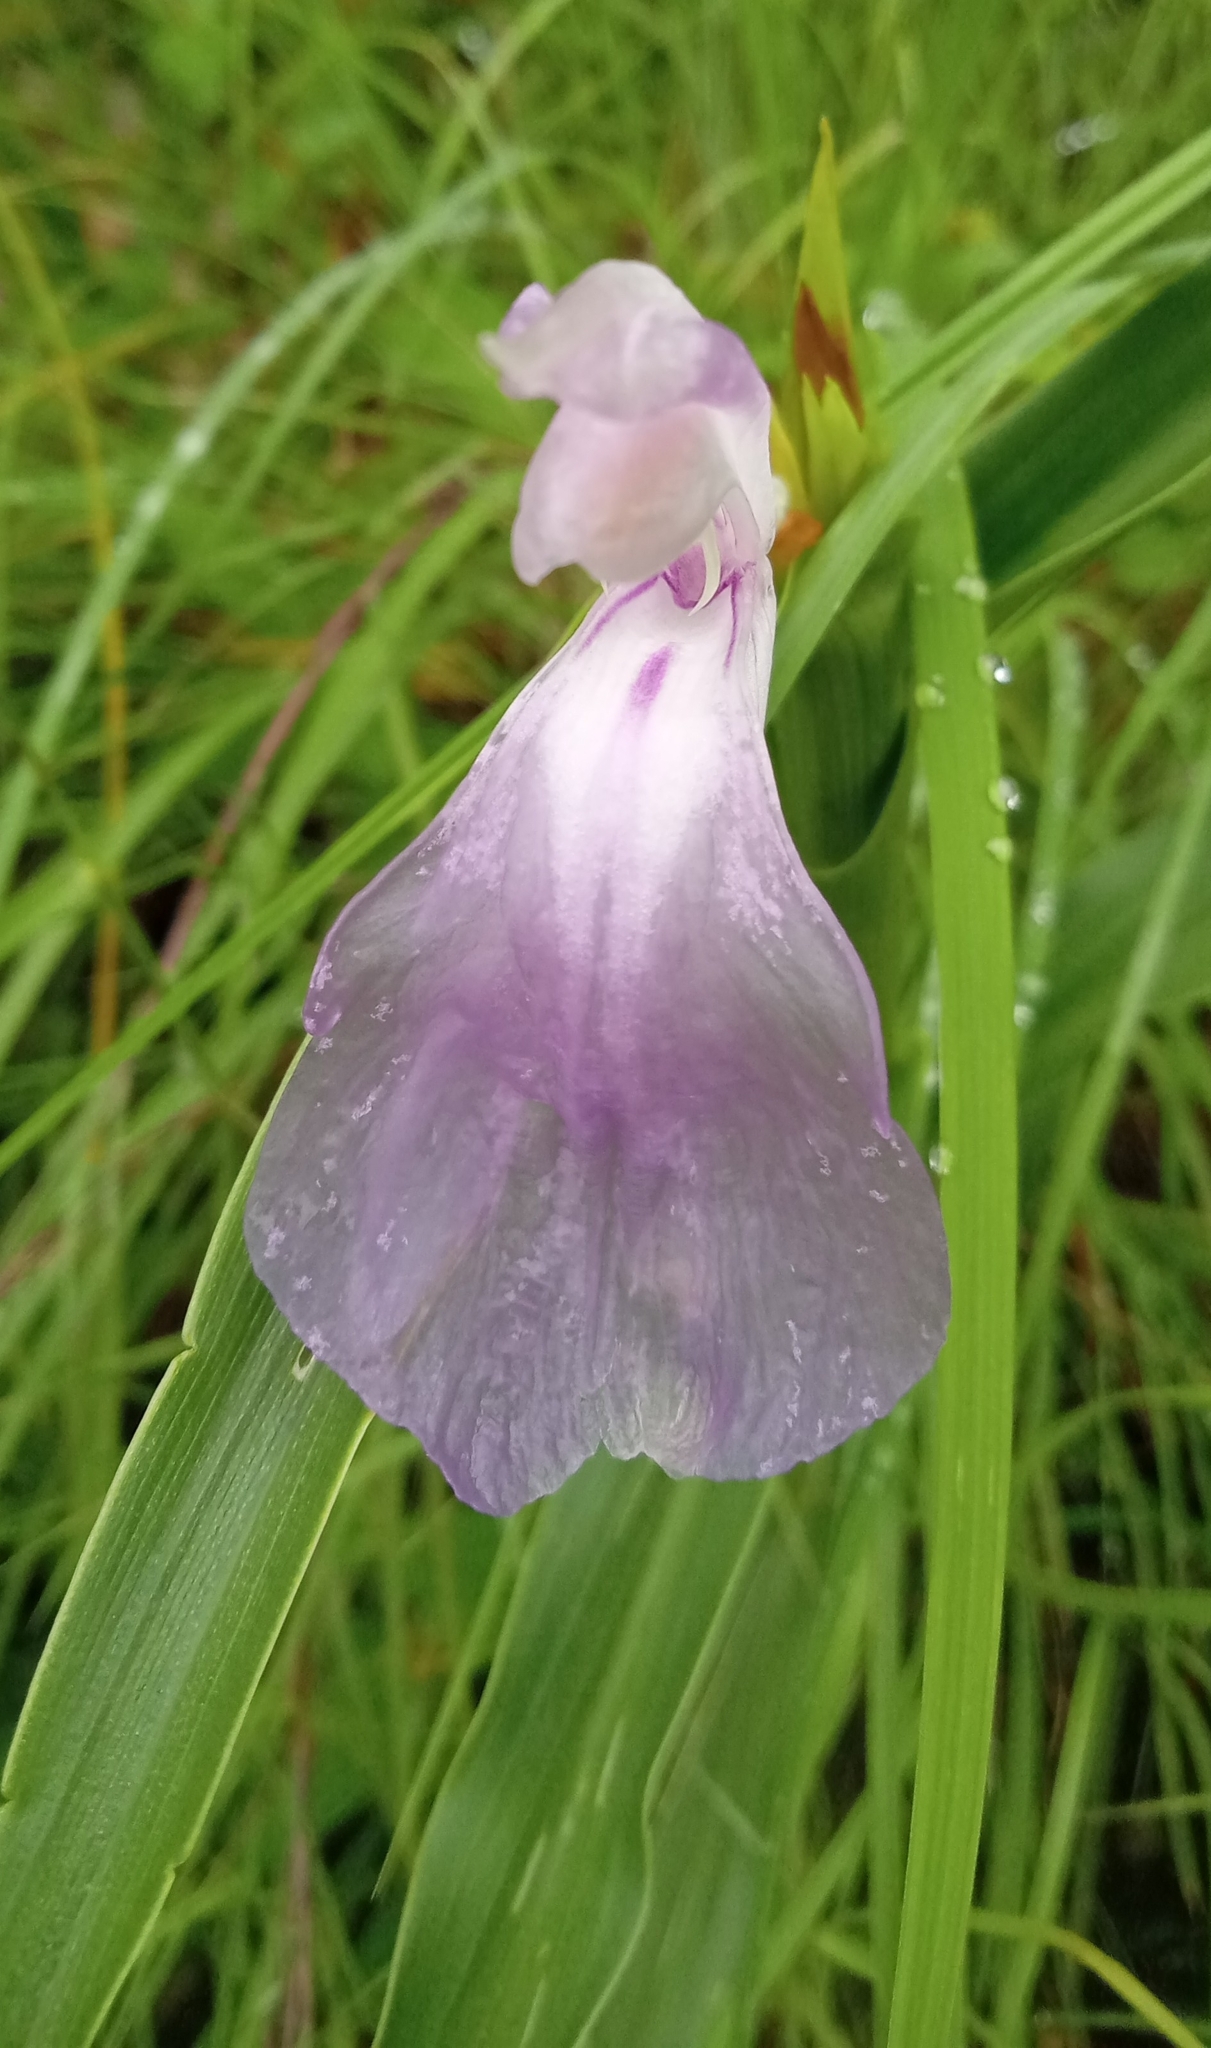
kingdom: Plantae
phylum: Tracheophyta
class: Liliopsida
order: Zingiberales
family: Zingiberaceae
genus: Roscoea
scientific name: Roscoea purpurea
